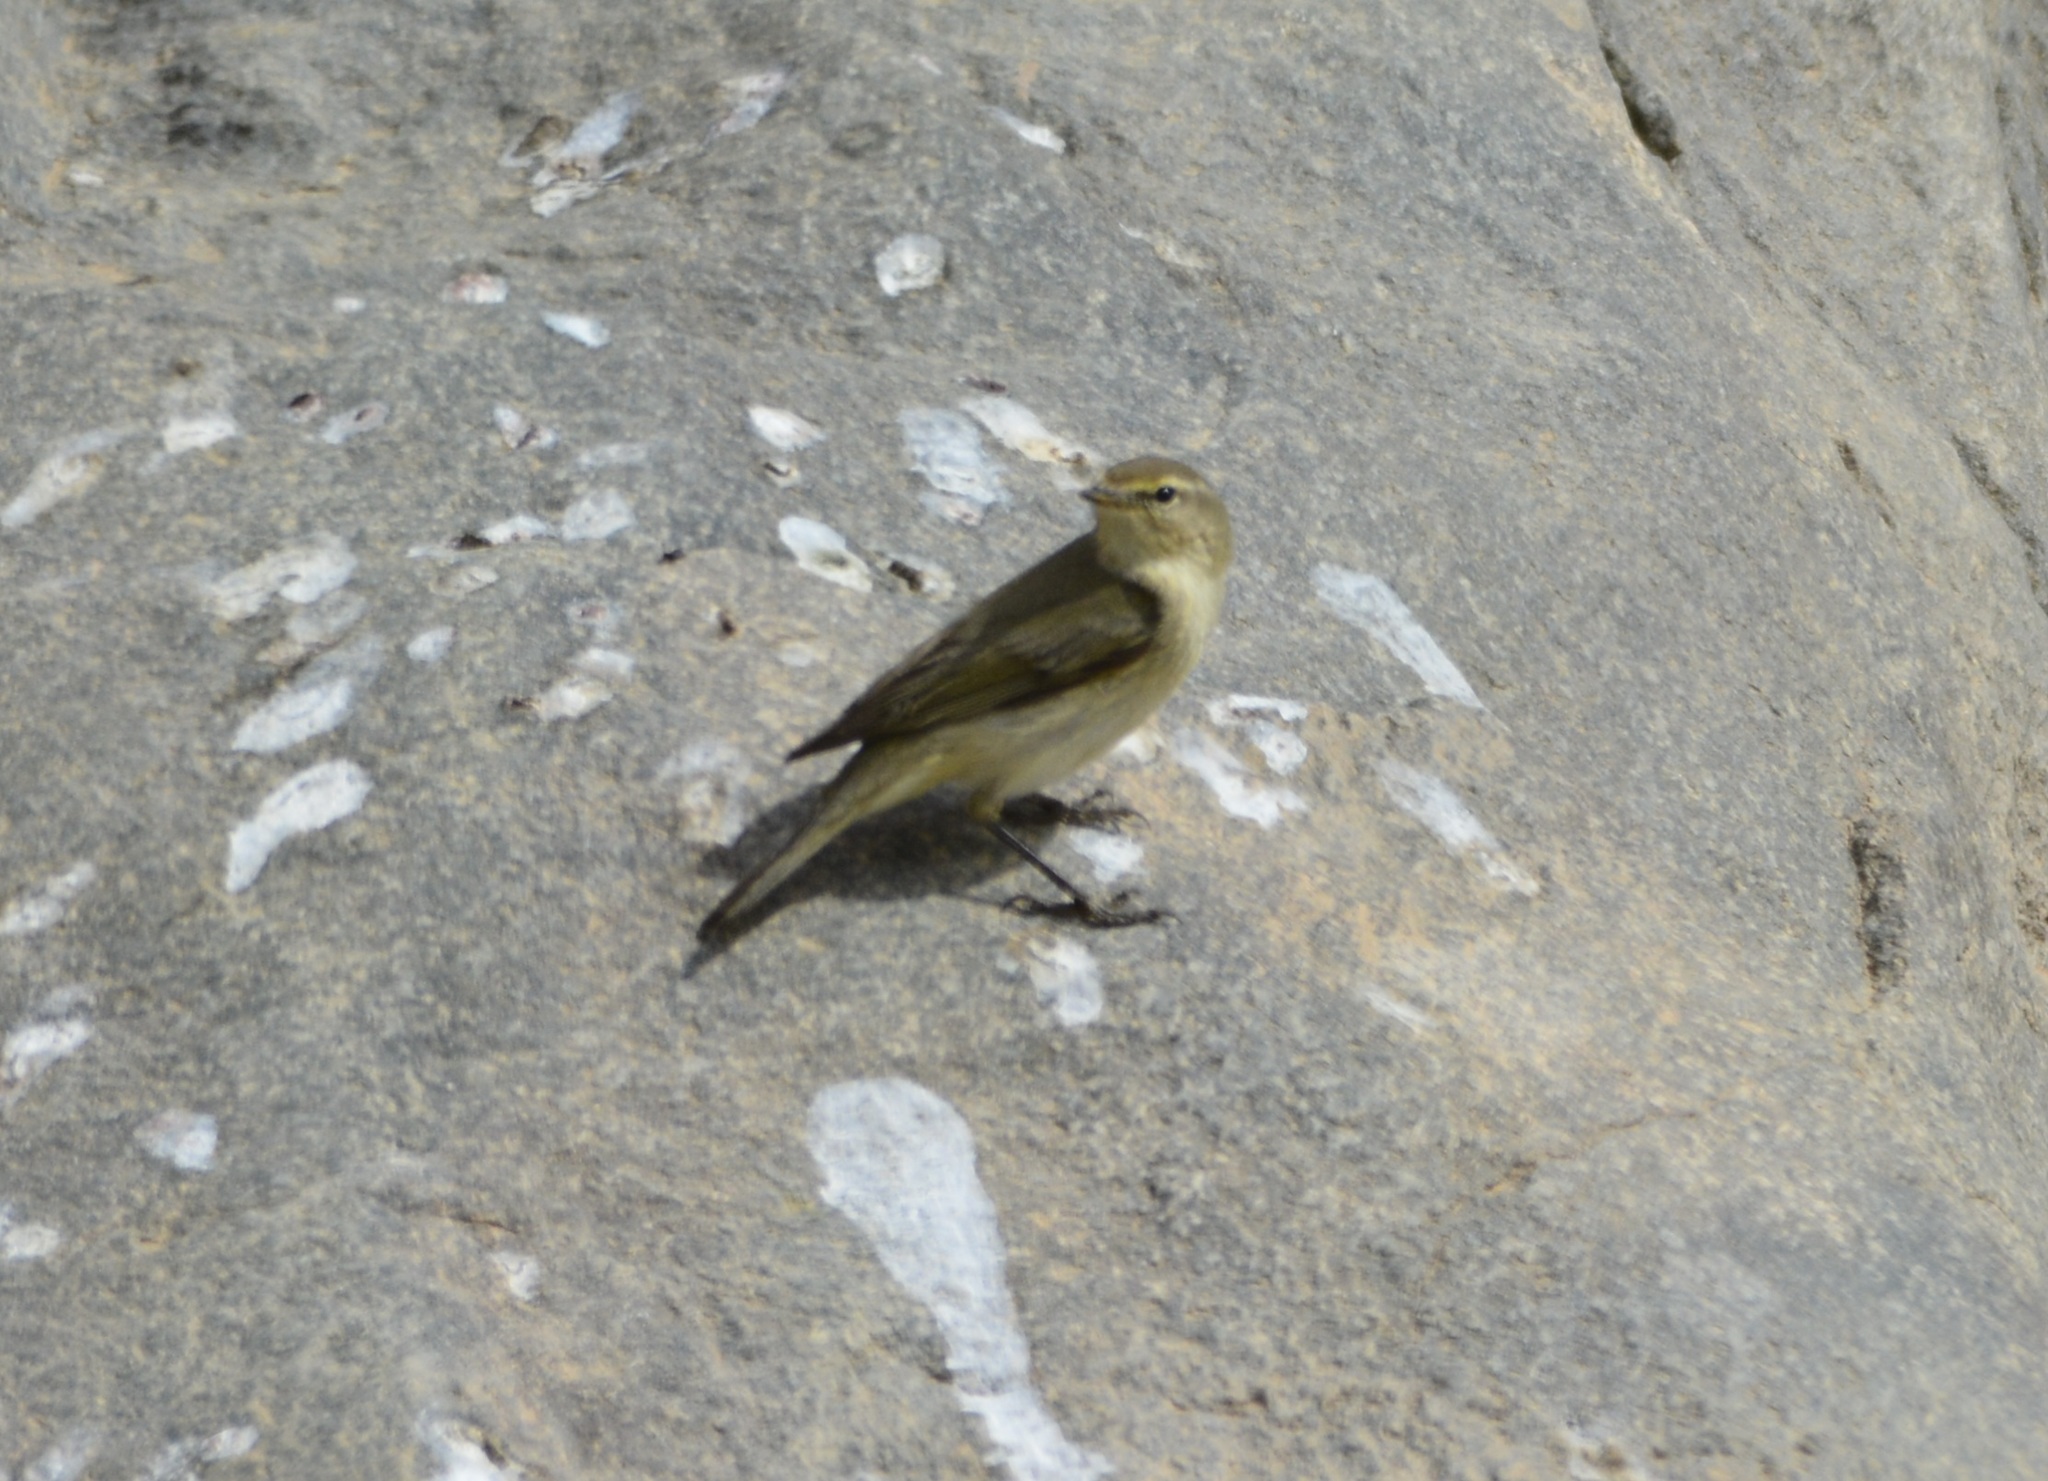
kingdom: Animalia
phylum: Chordata
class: Aves
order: Passeriformes
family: Phylloscopidae
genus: Phylloscopus
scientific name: Phylloscopus collybita
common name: Common chiffchaff
